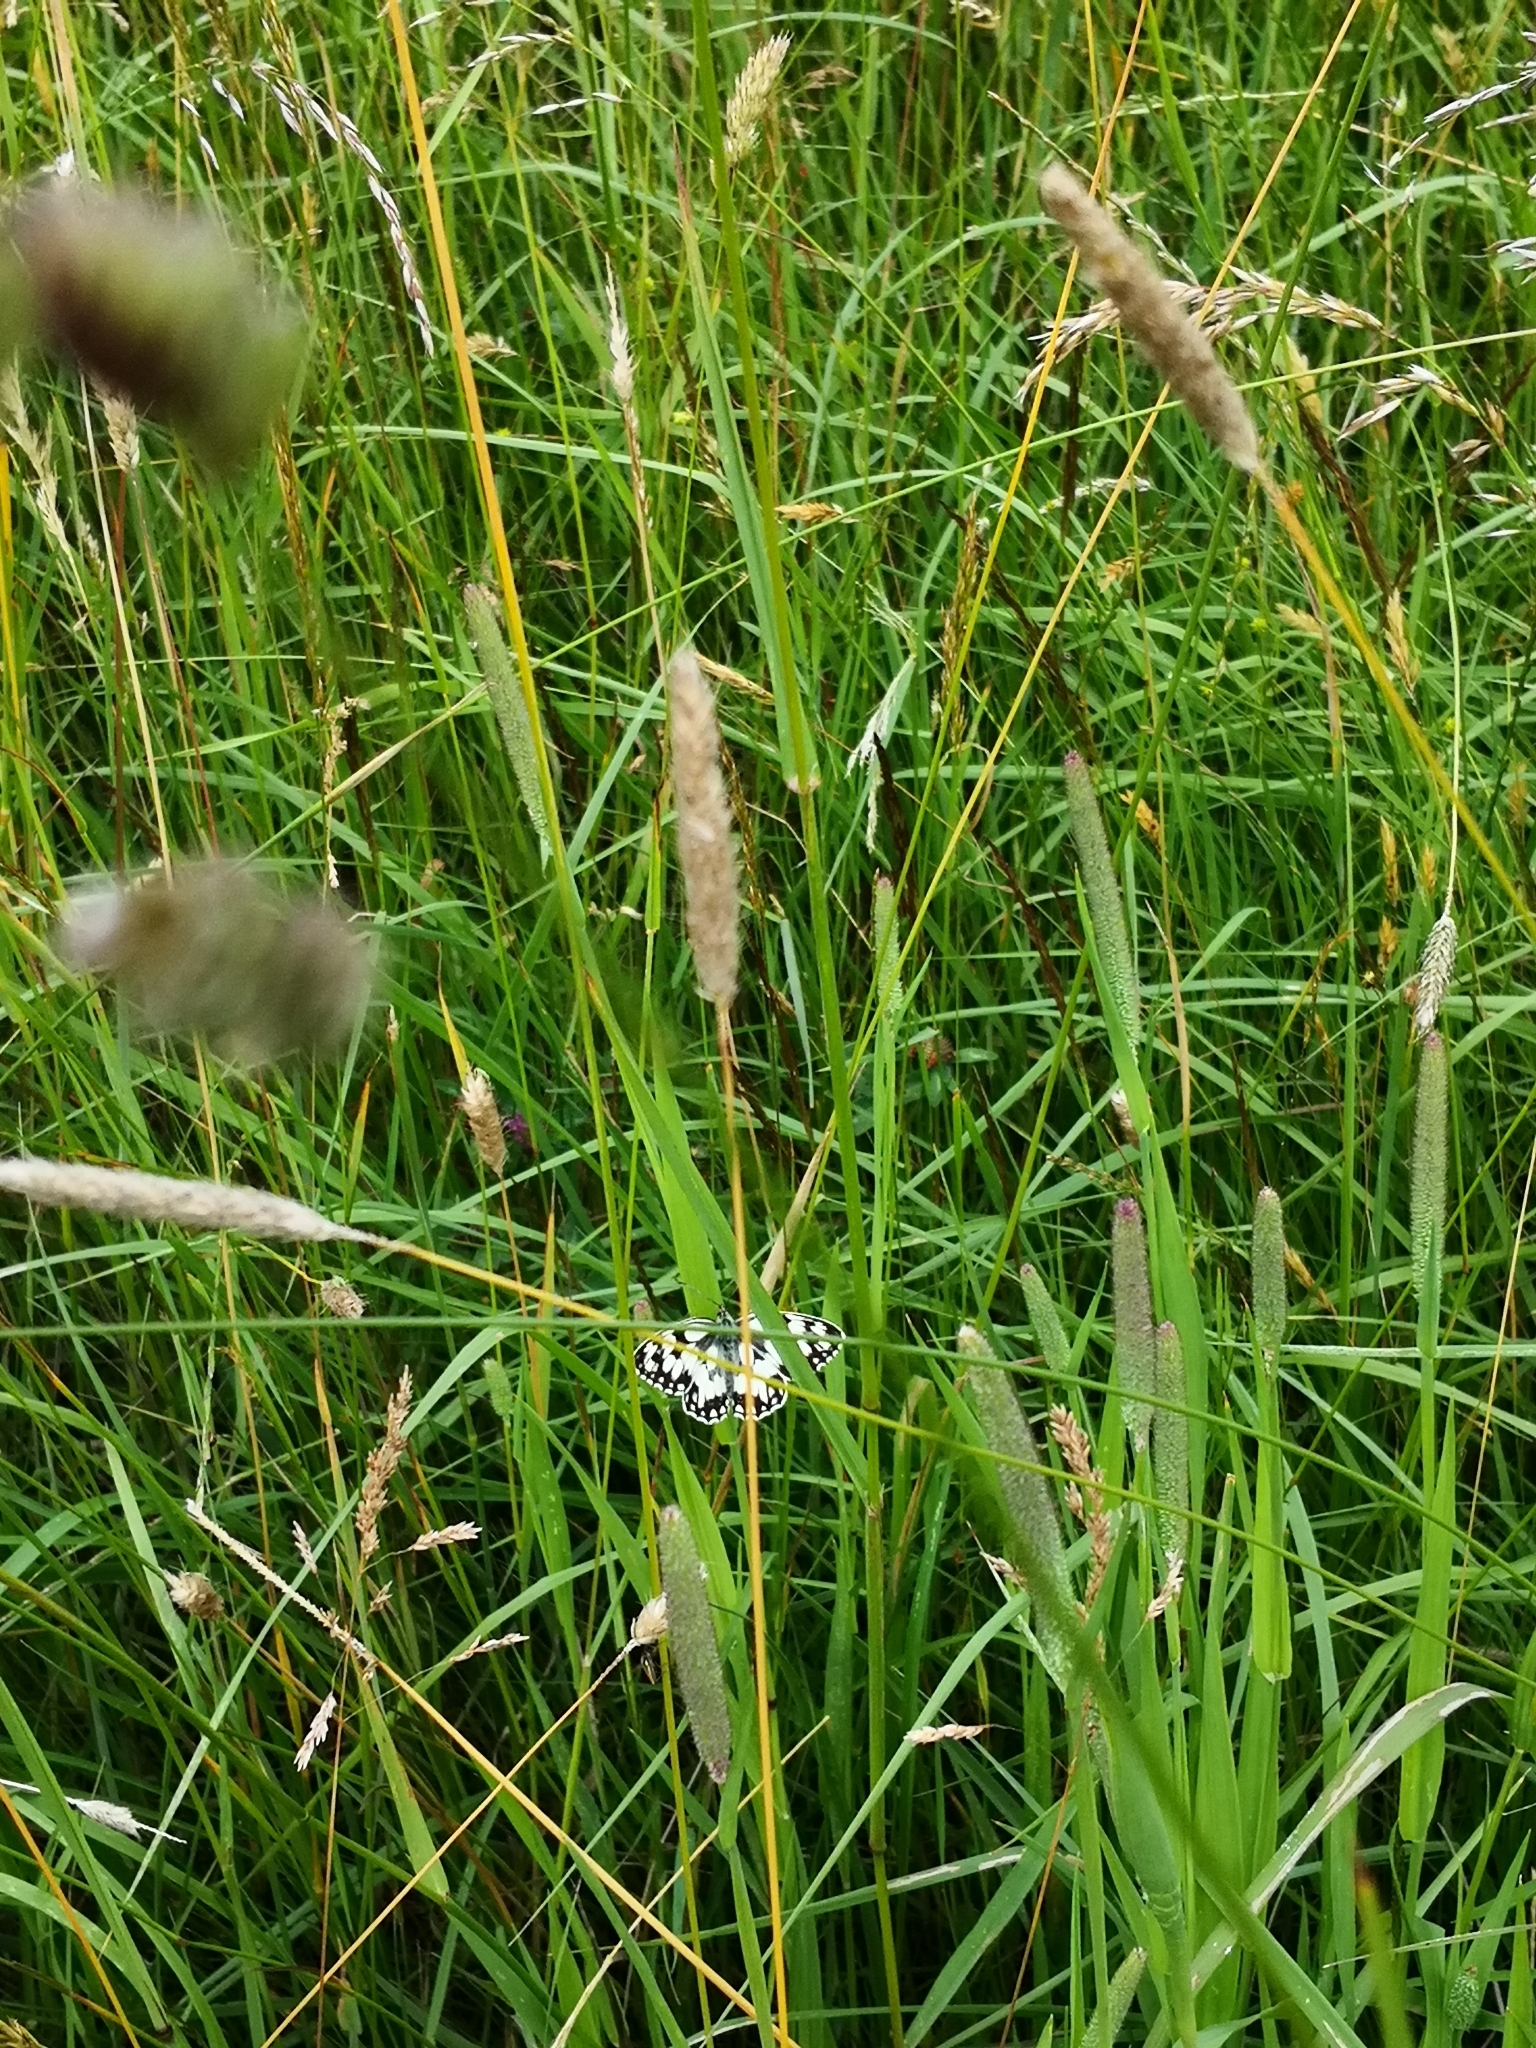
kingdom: Animalia
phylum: Arthropoda
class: Insecta
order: Lepidoptera
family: Nymphalidae
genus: Melanargia
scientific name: Melanargia galathea
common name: Marbled white
